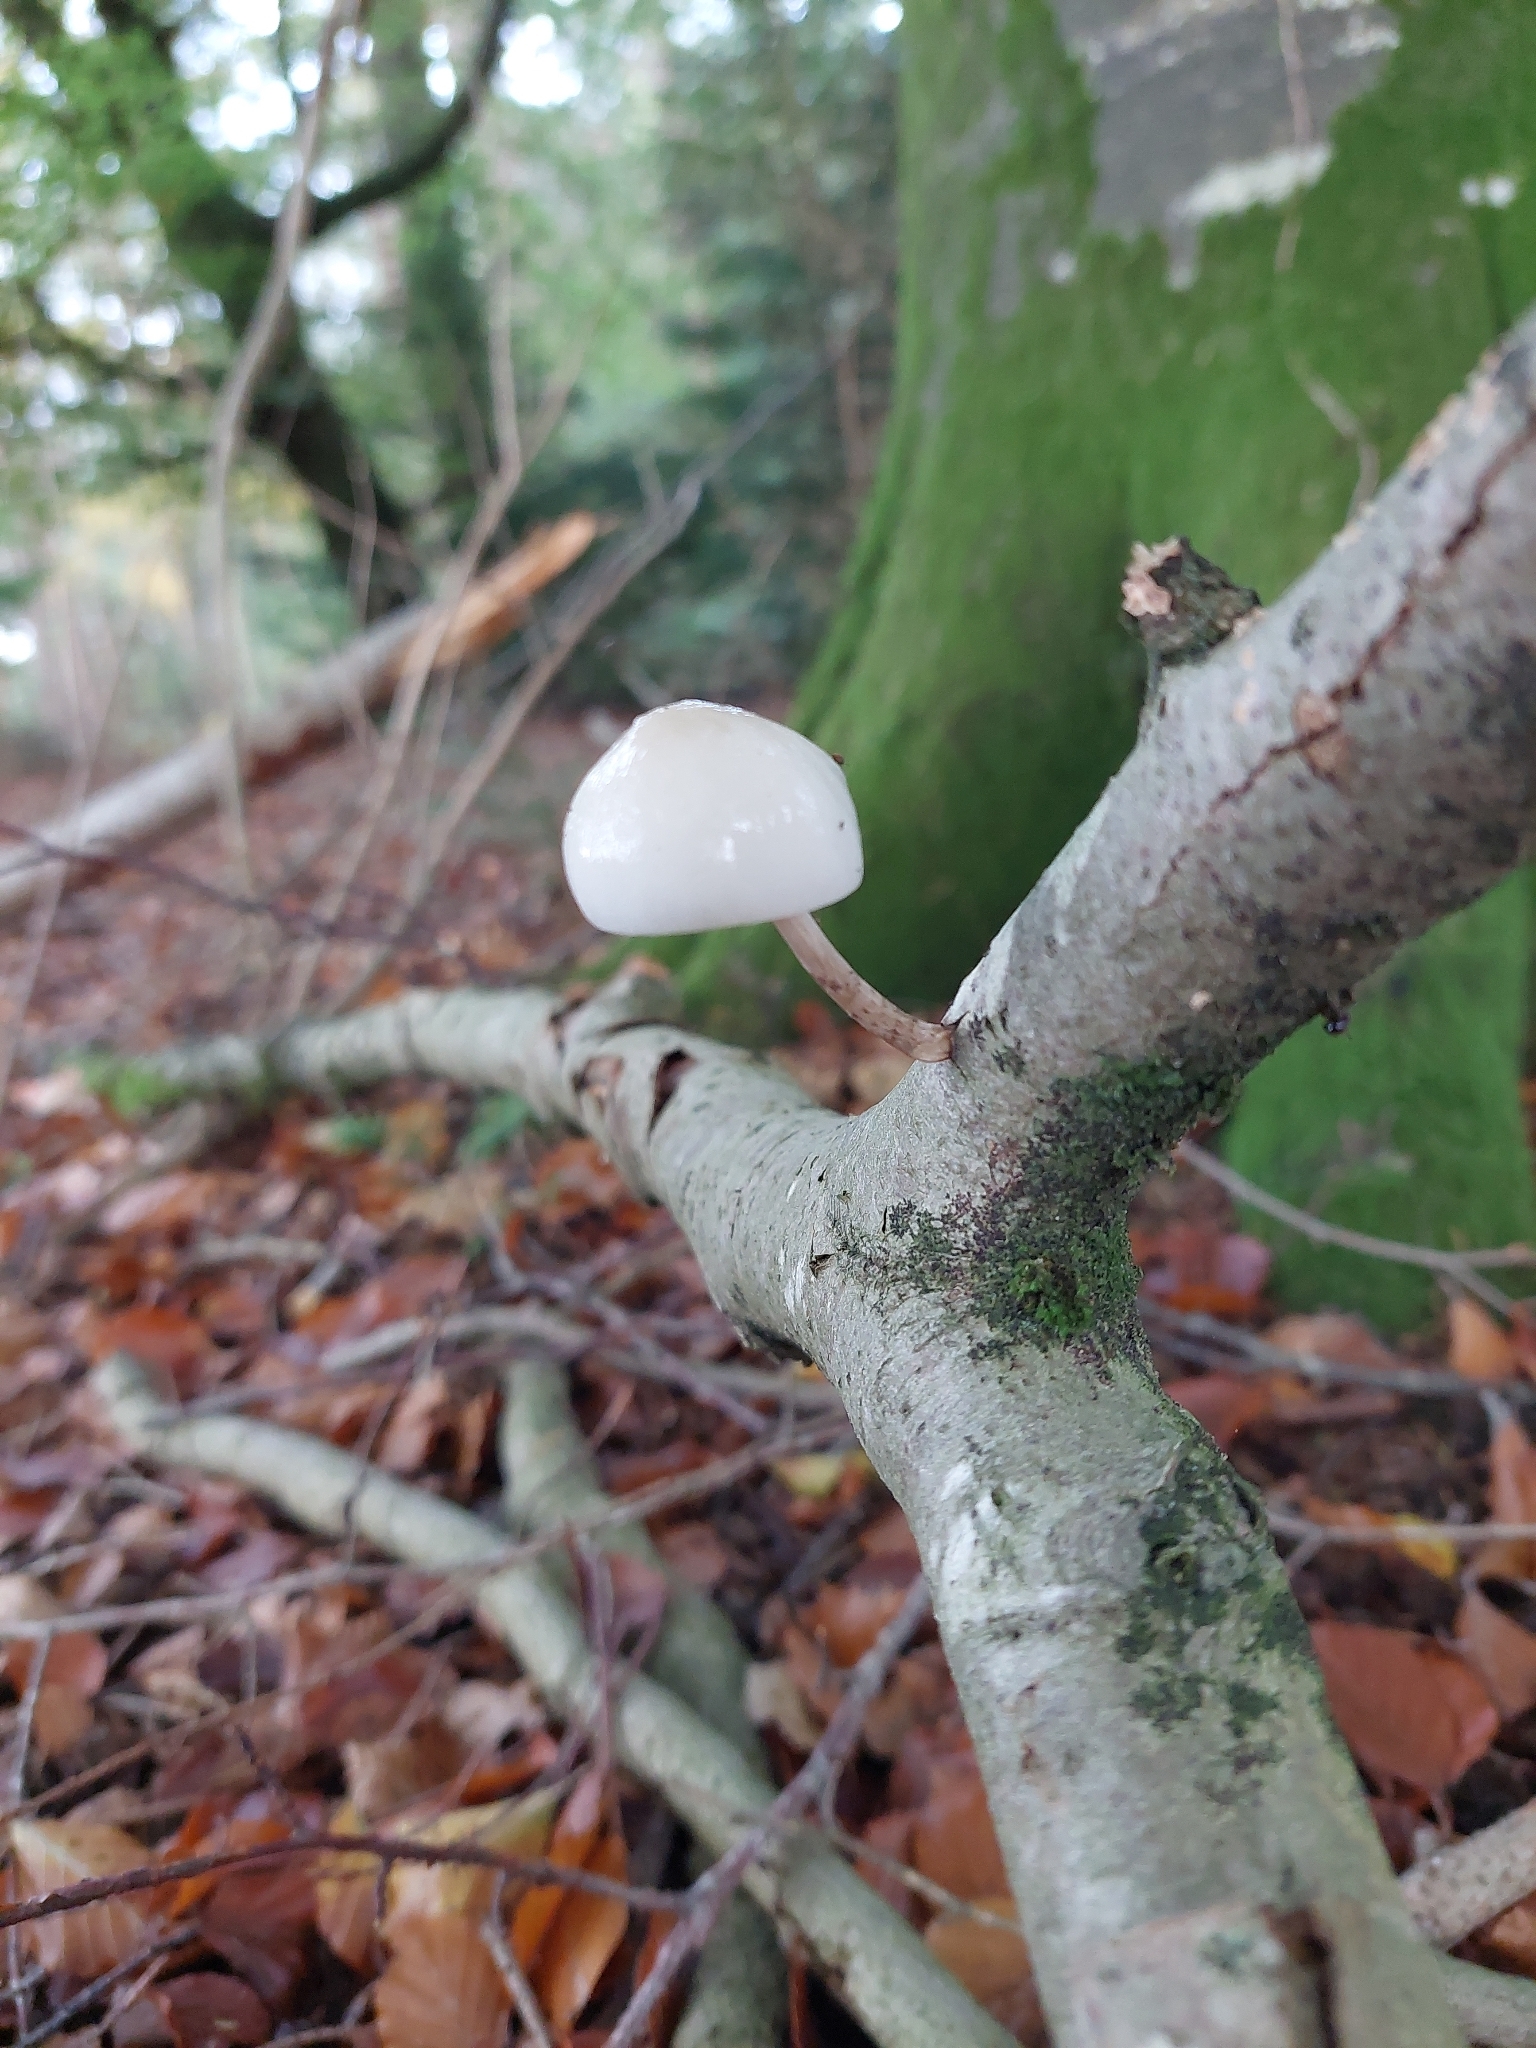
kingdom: Fungi
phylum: Basidiomycota
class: Agaricomycetes
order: Agaricales
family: Physalacriaceae
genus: Mucidula
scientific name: Mucidula mucida
